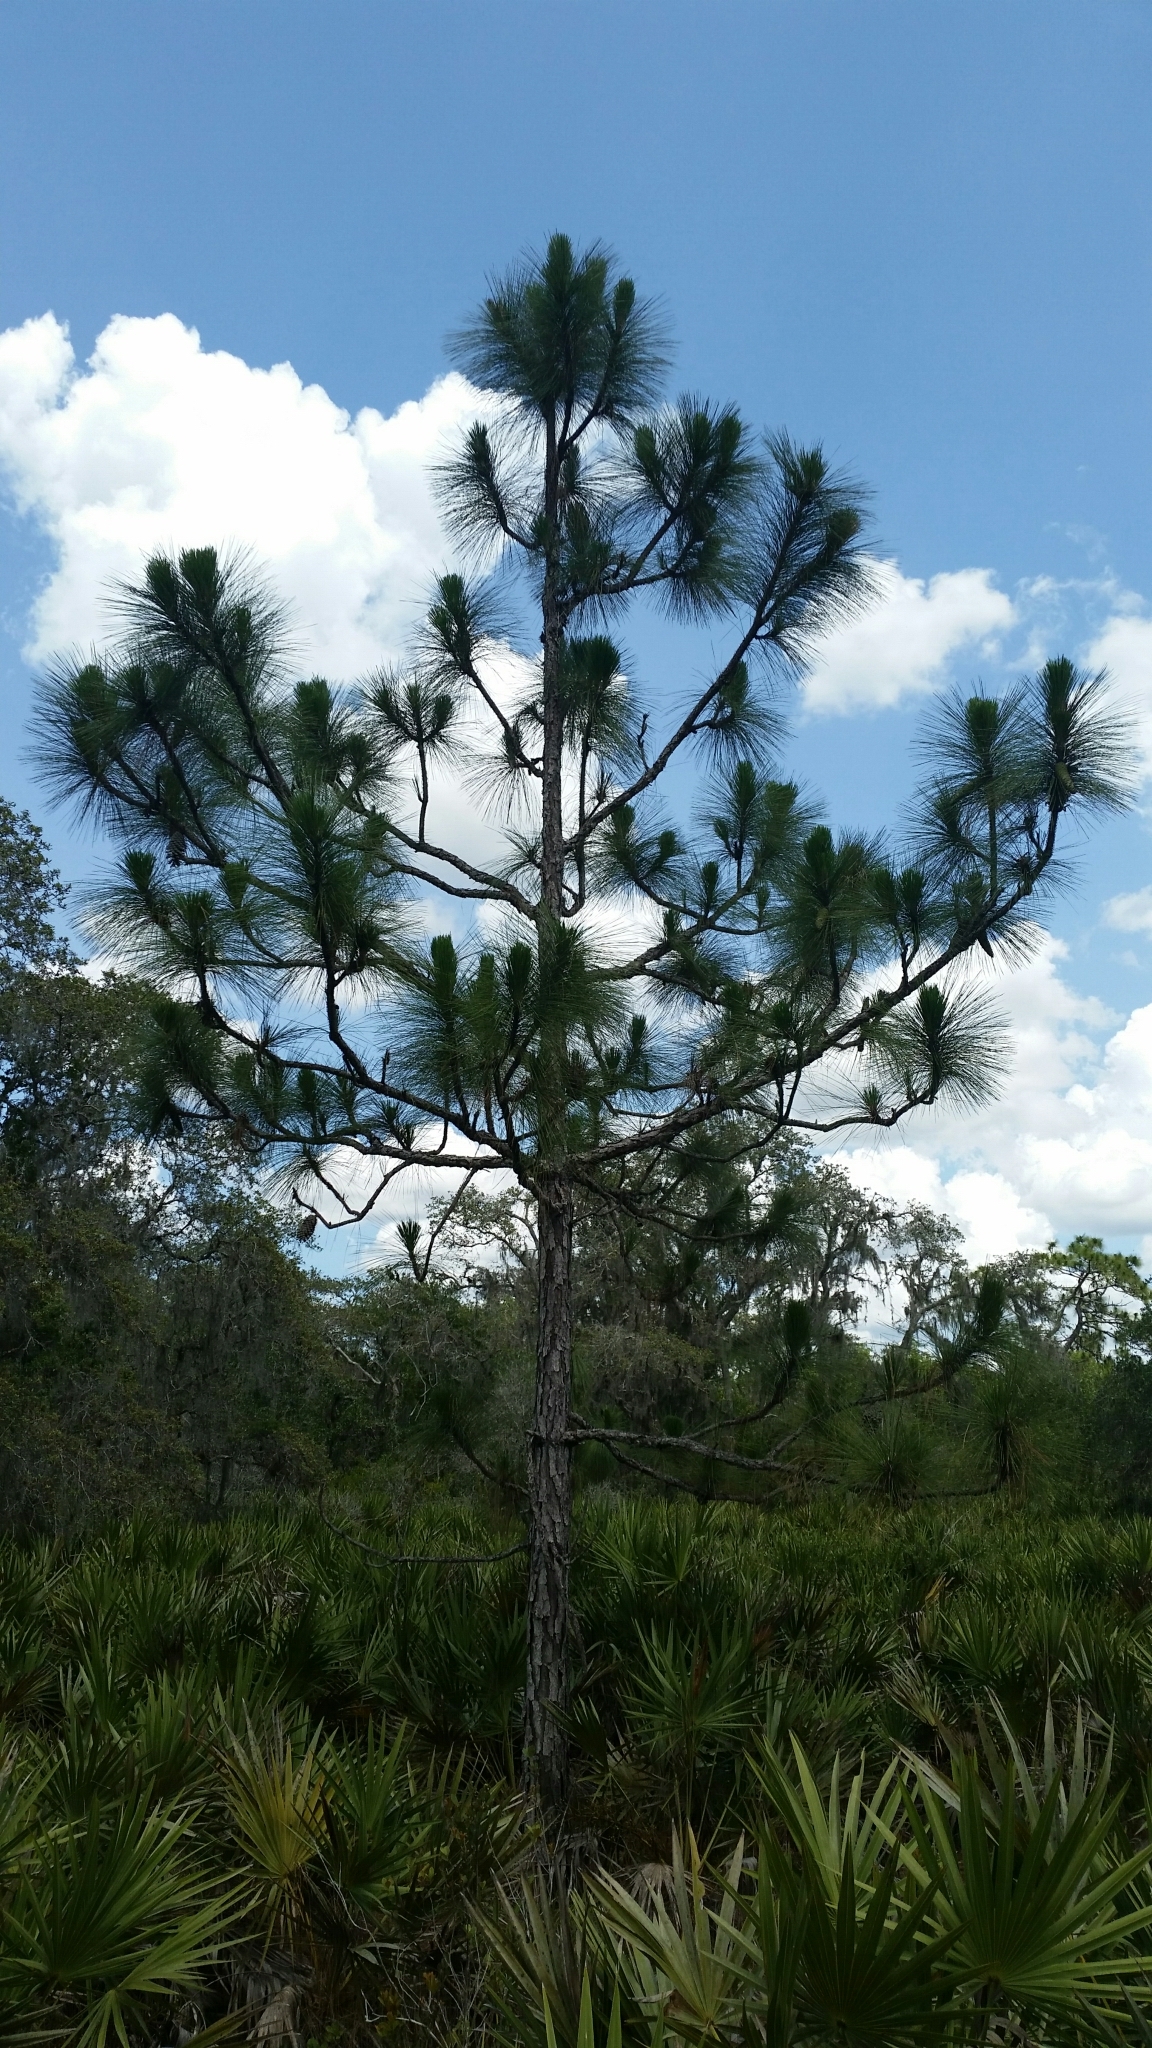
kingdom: Plantae
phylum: Tracheophyta
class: Pinopsida
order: Pinales
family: Pinaceae
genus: Pinus
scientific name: Pinus palustris
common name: Longleaf pine
